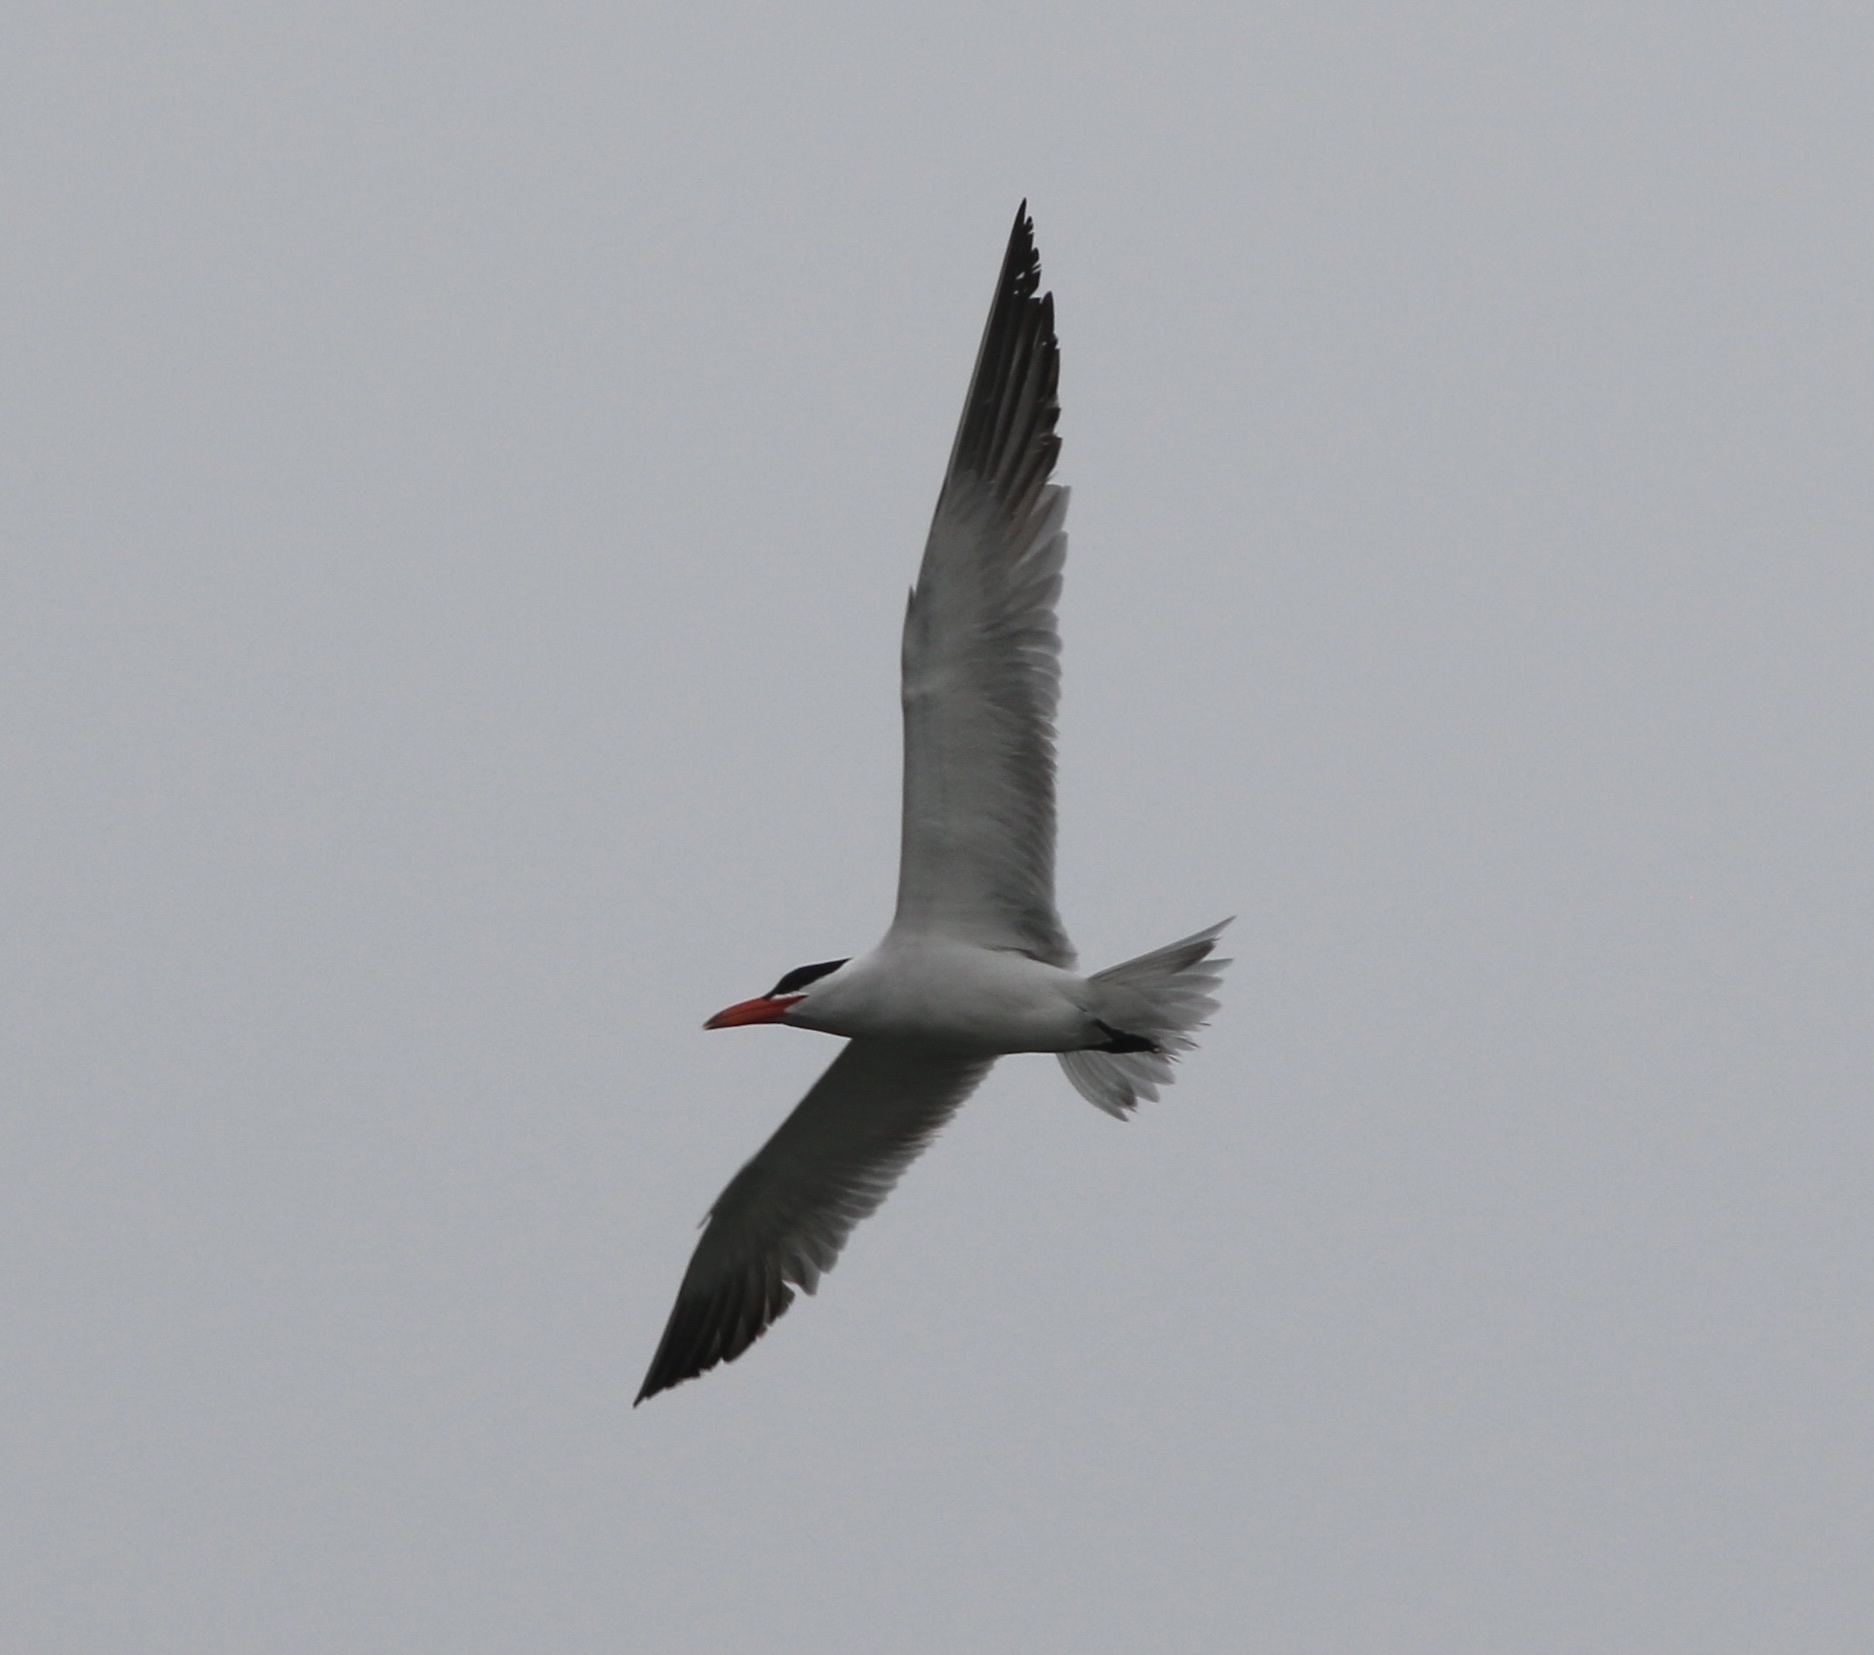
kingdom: Animalia
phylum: Chordata
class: Aves
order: Charadriiformes
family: Laridae
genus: Hydroprogne
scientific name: Hydroprogne caspia
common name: Caspian tern
